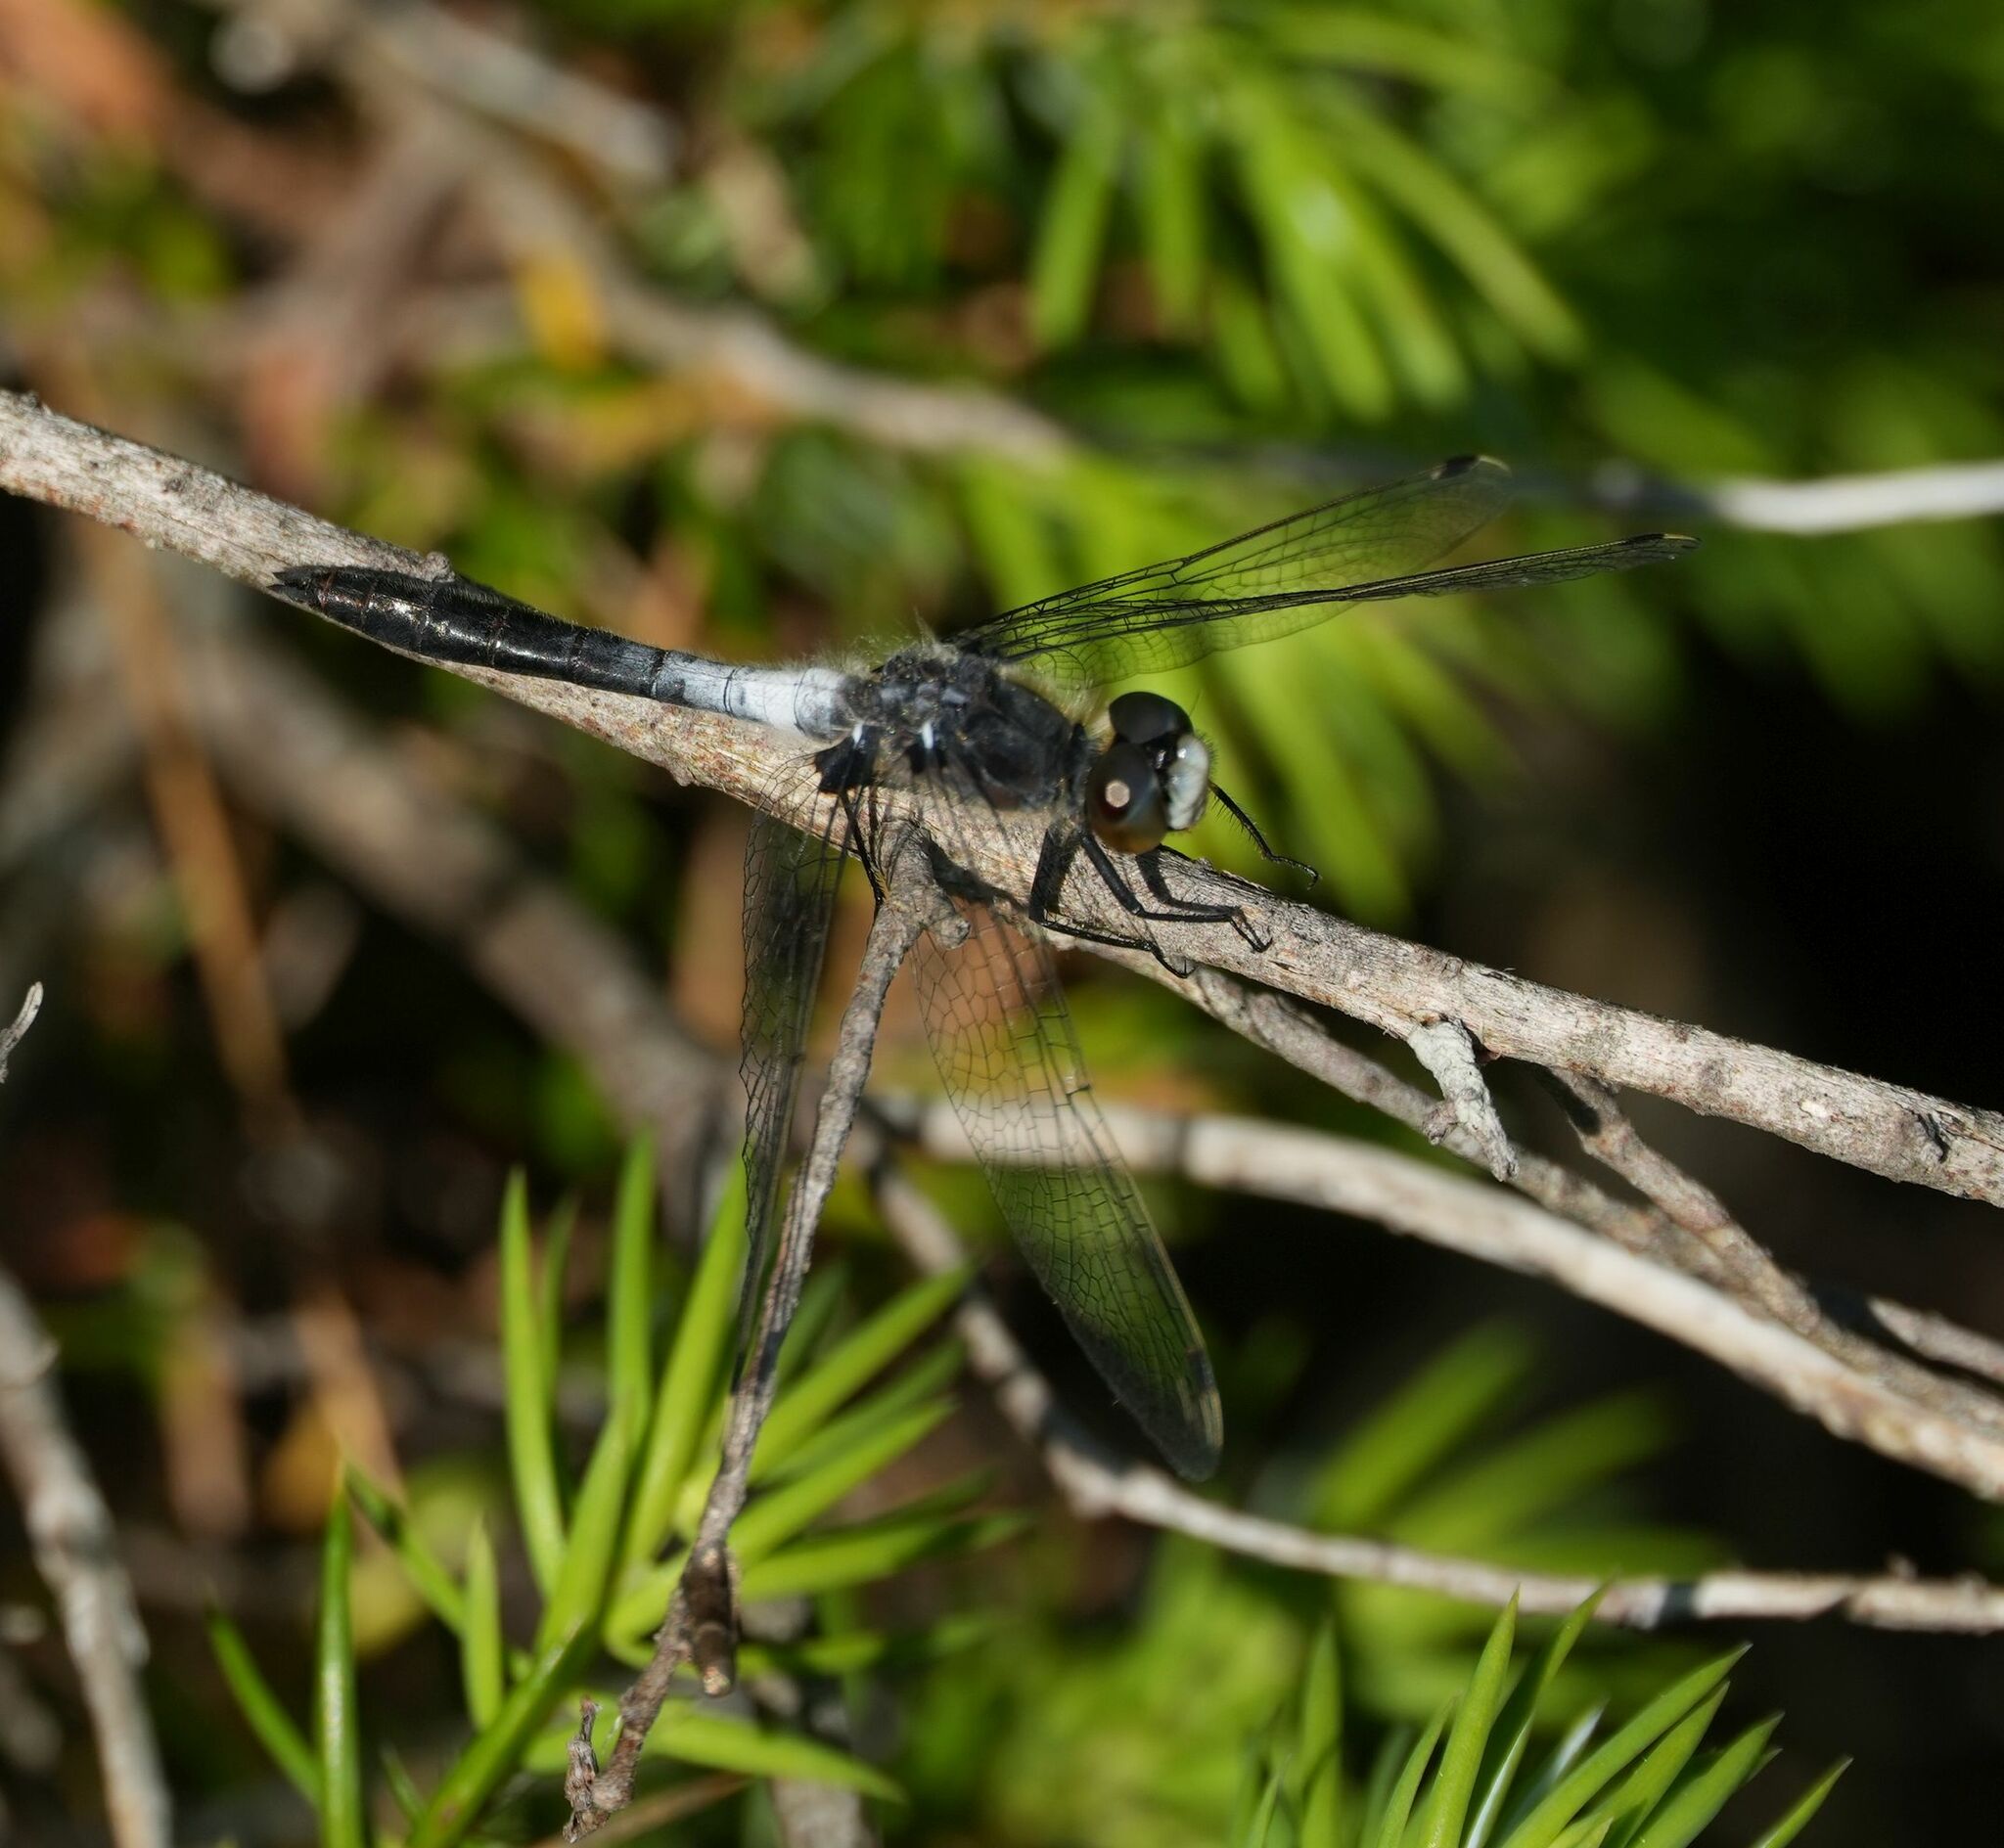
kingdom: Animalia
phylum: Arthropoda
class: Insecta
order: Odonata
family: Libellulidae
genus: Leucorrhinia
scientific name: Leucorrhinia frigida
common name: Frosted whiteface
